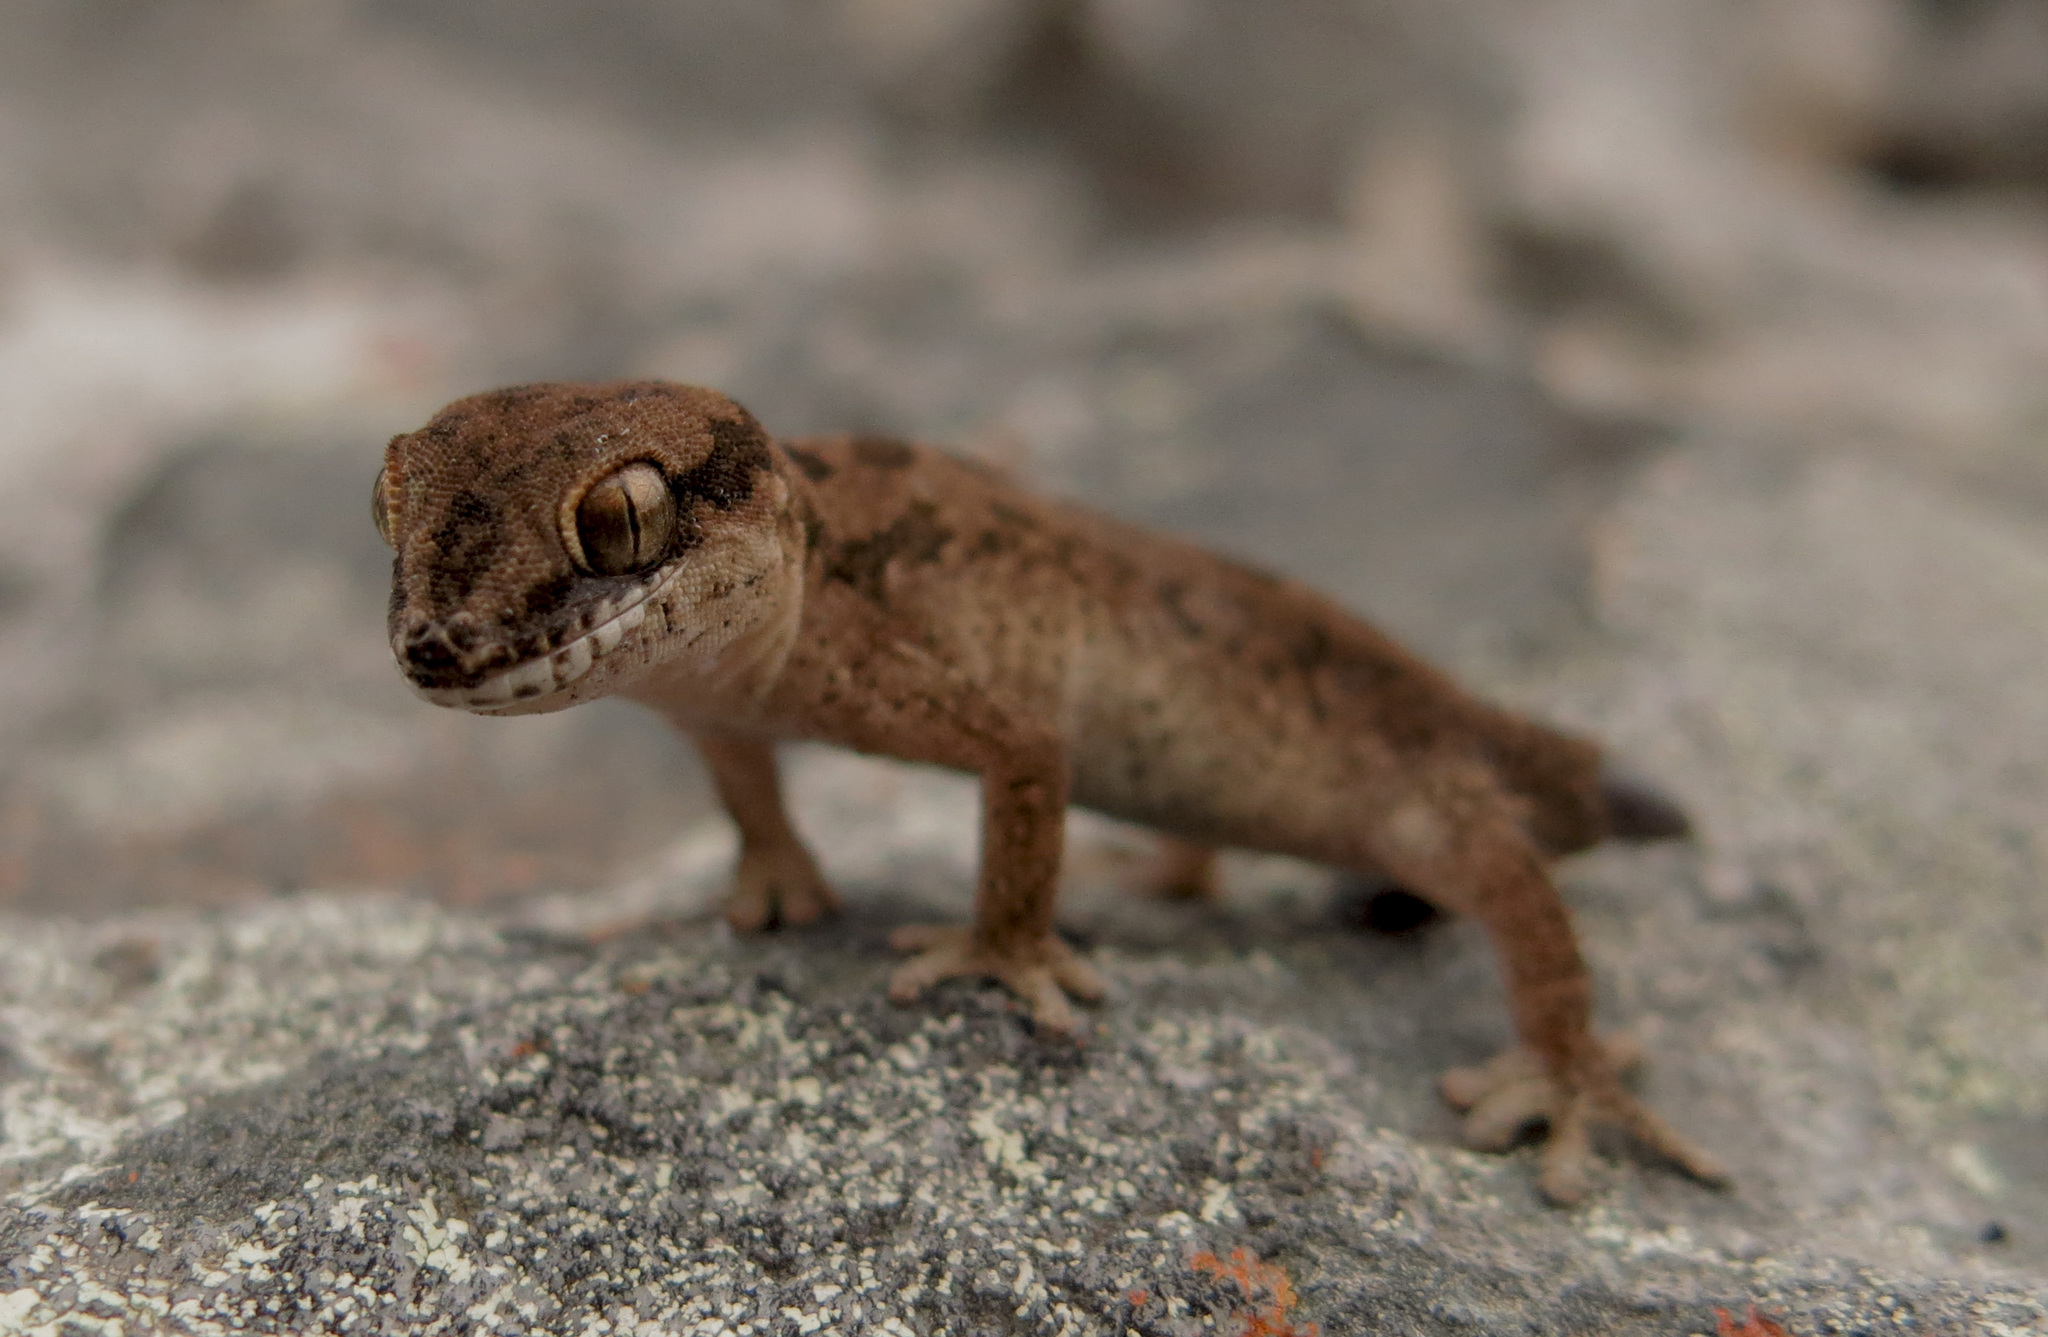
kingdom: Animalia
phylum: Chordata
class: Squamata
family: Gekkonidae
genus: Pachydactylus
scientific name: Pachydactylus maculatus
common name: Spotted thick-toed gecko
